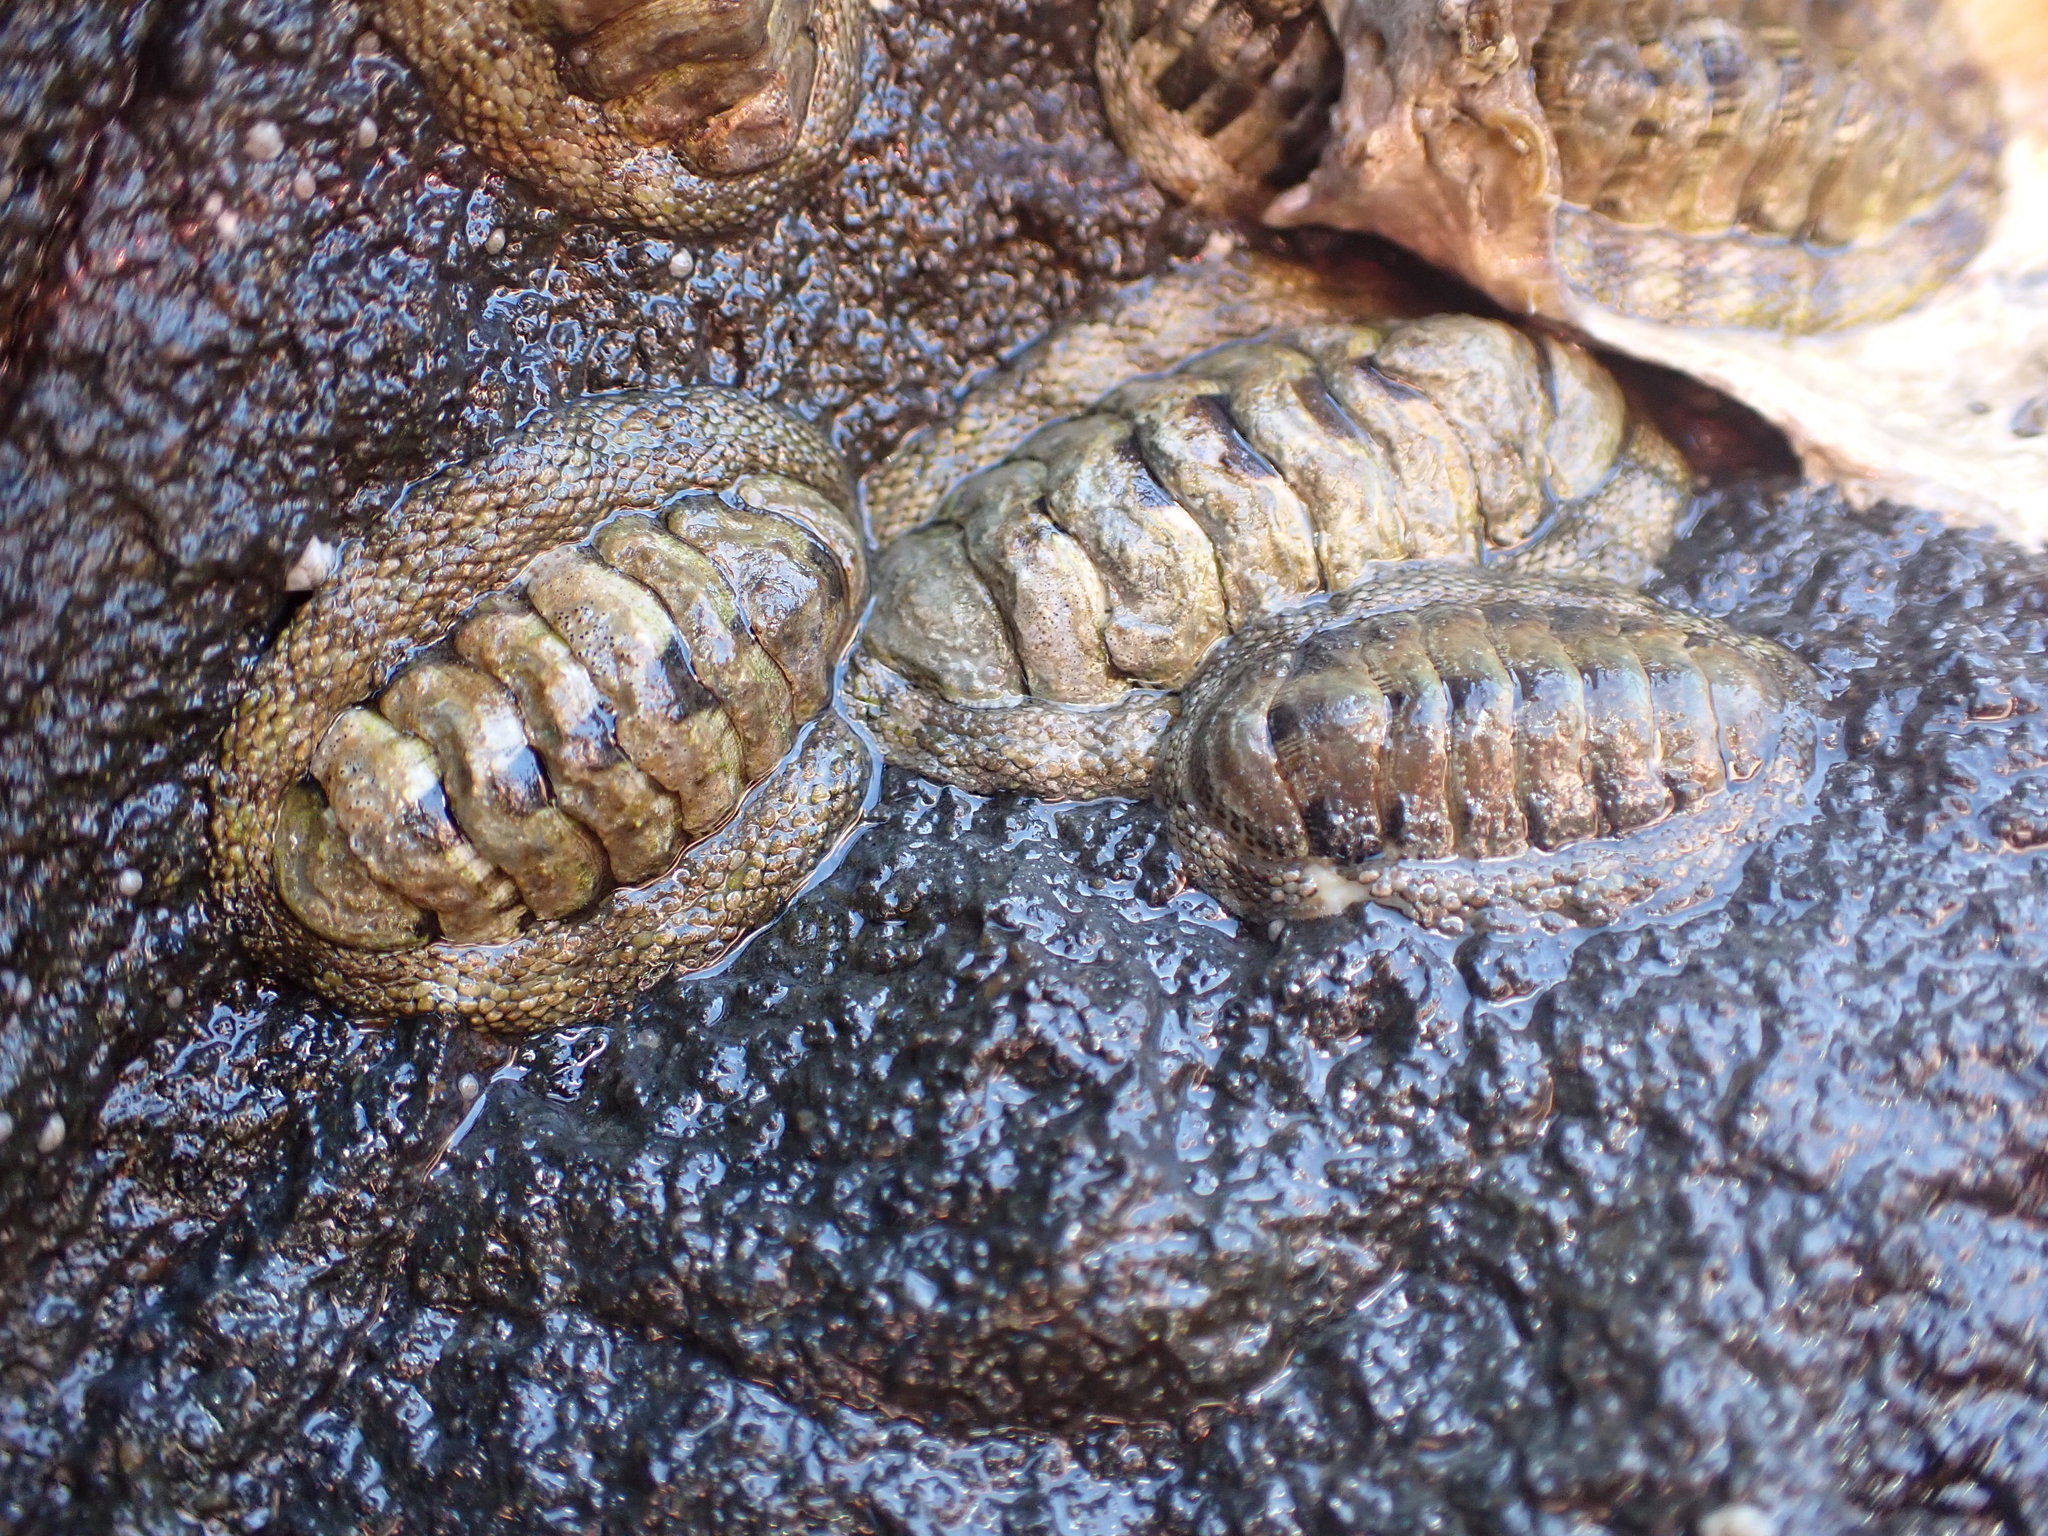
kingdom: Animalia
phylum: Mollusca
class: Polyplacophora
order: Chitonida
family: Chitonidae
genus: Sypharochiton
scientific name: Sypharochiton pelliserpentis
